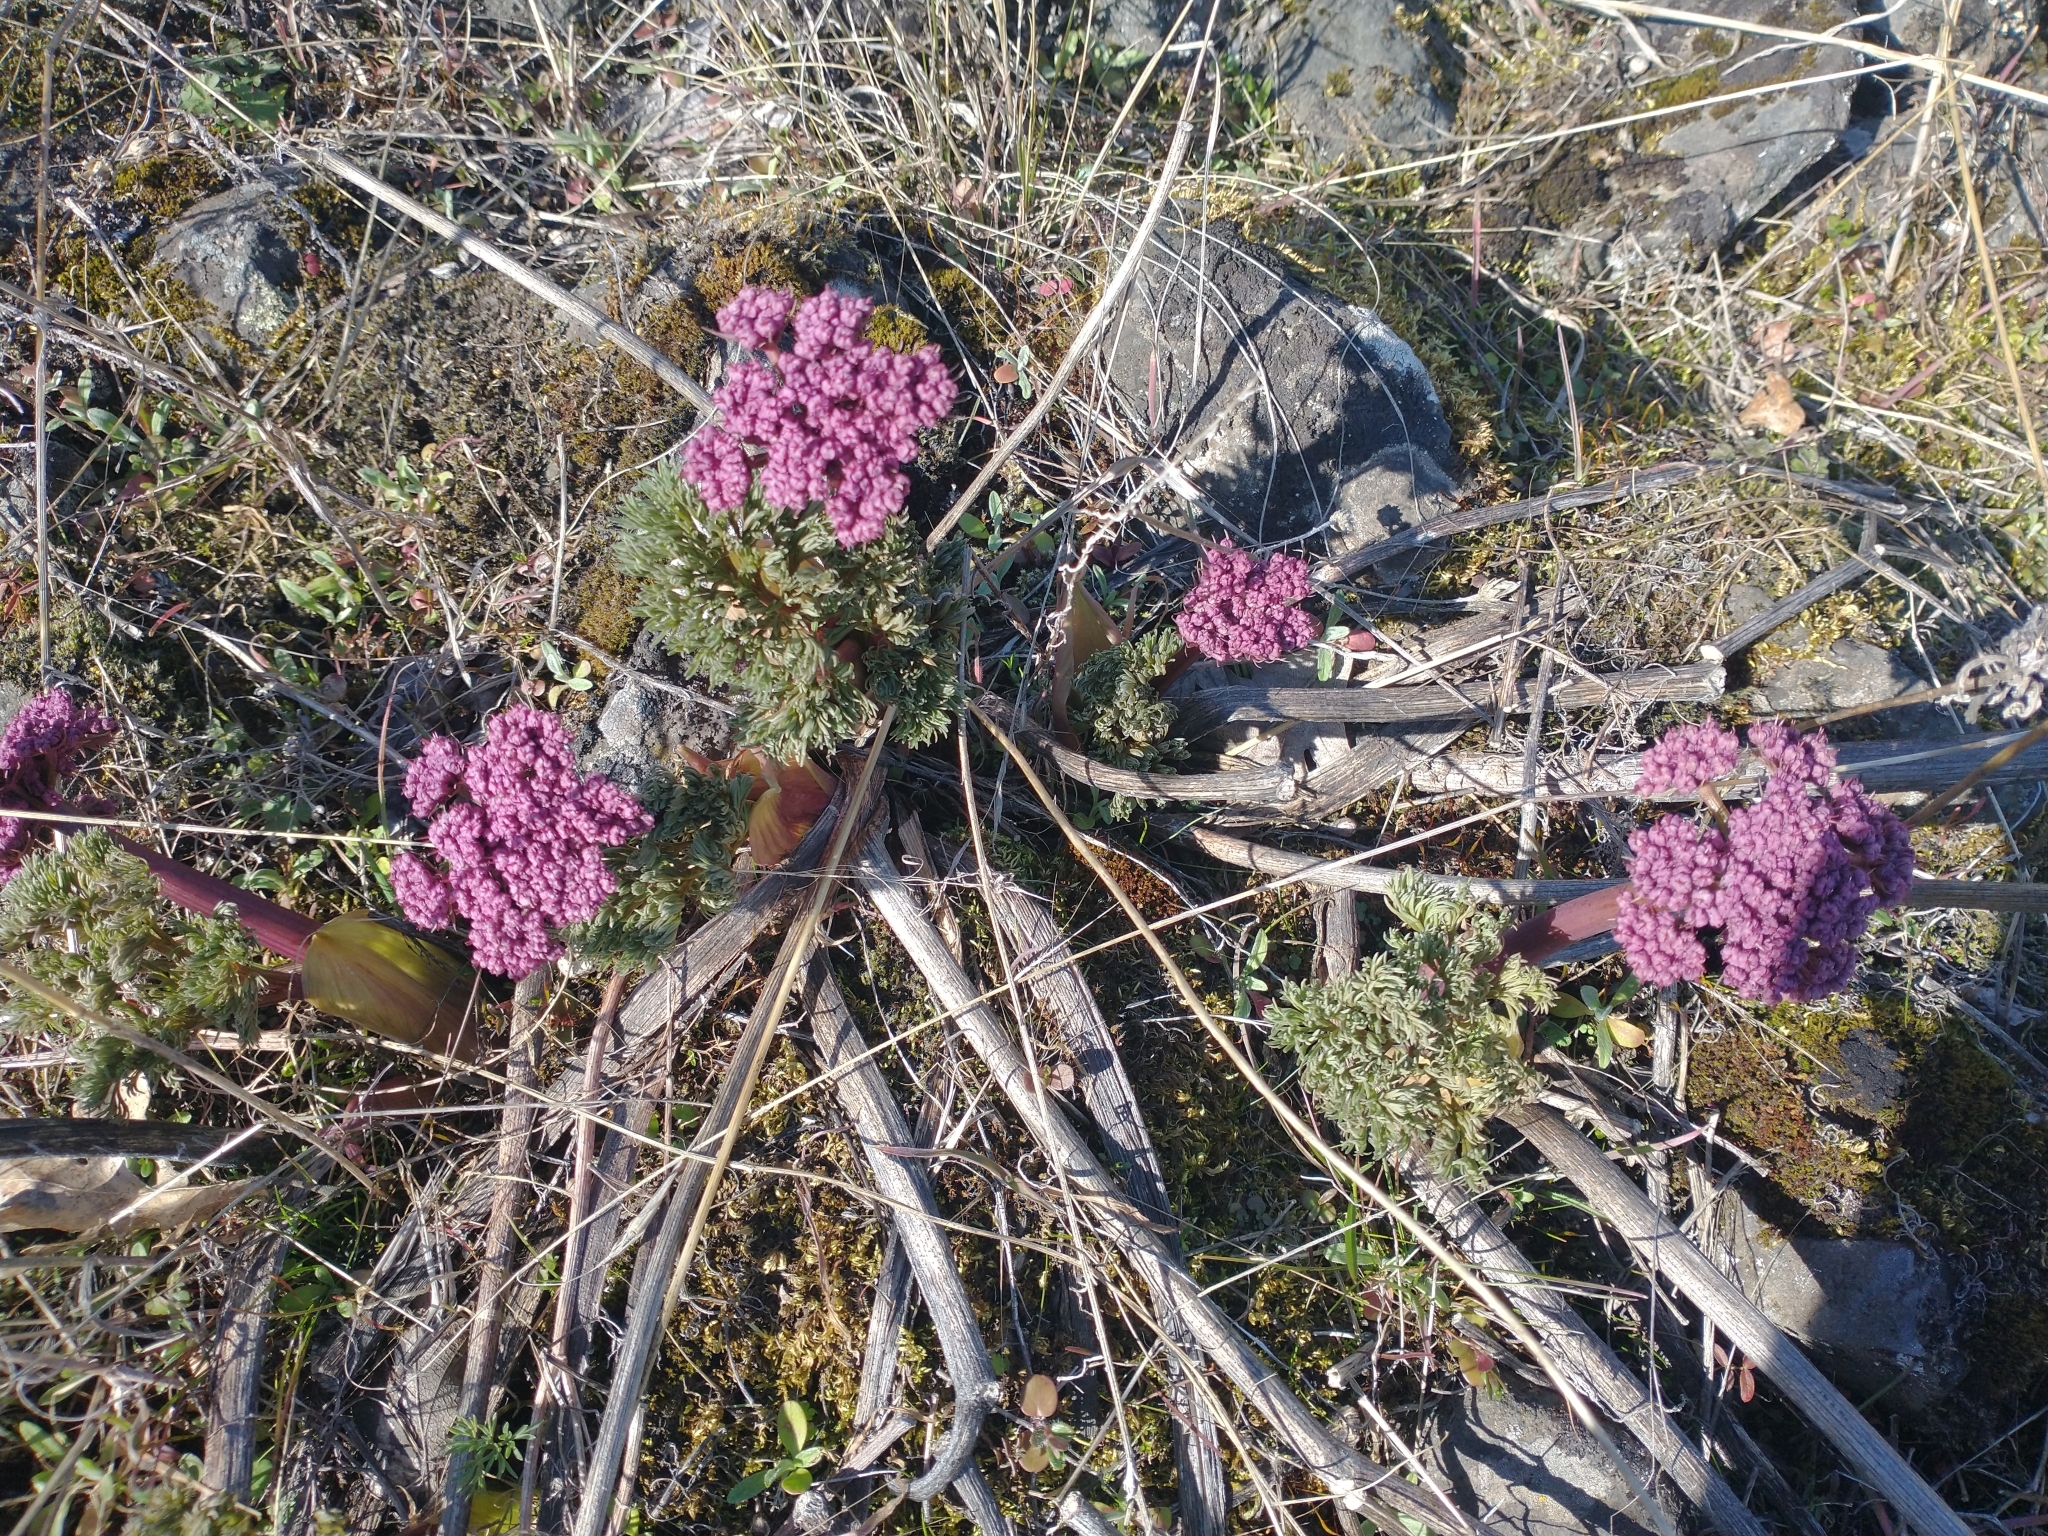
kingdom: Plantae
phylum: Tracheophyta
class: Magnoliopsida
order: Apiales
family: Apiaceae
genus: Lomatium
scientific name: Lomatium columbianum
